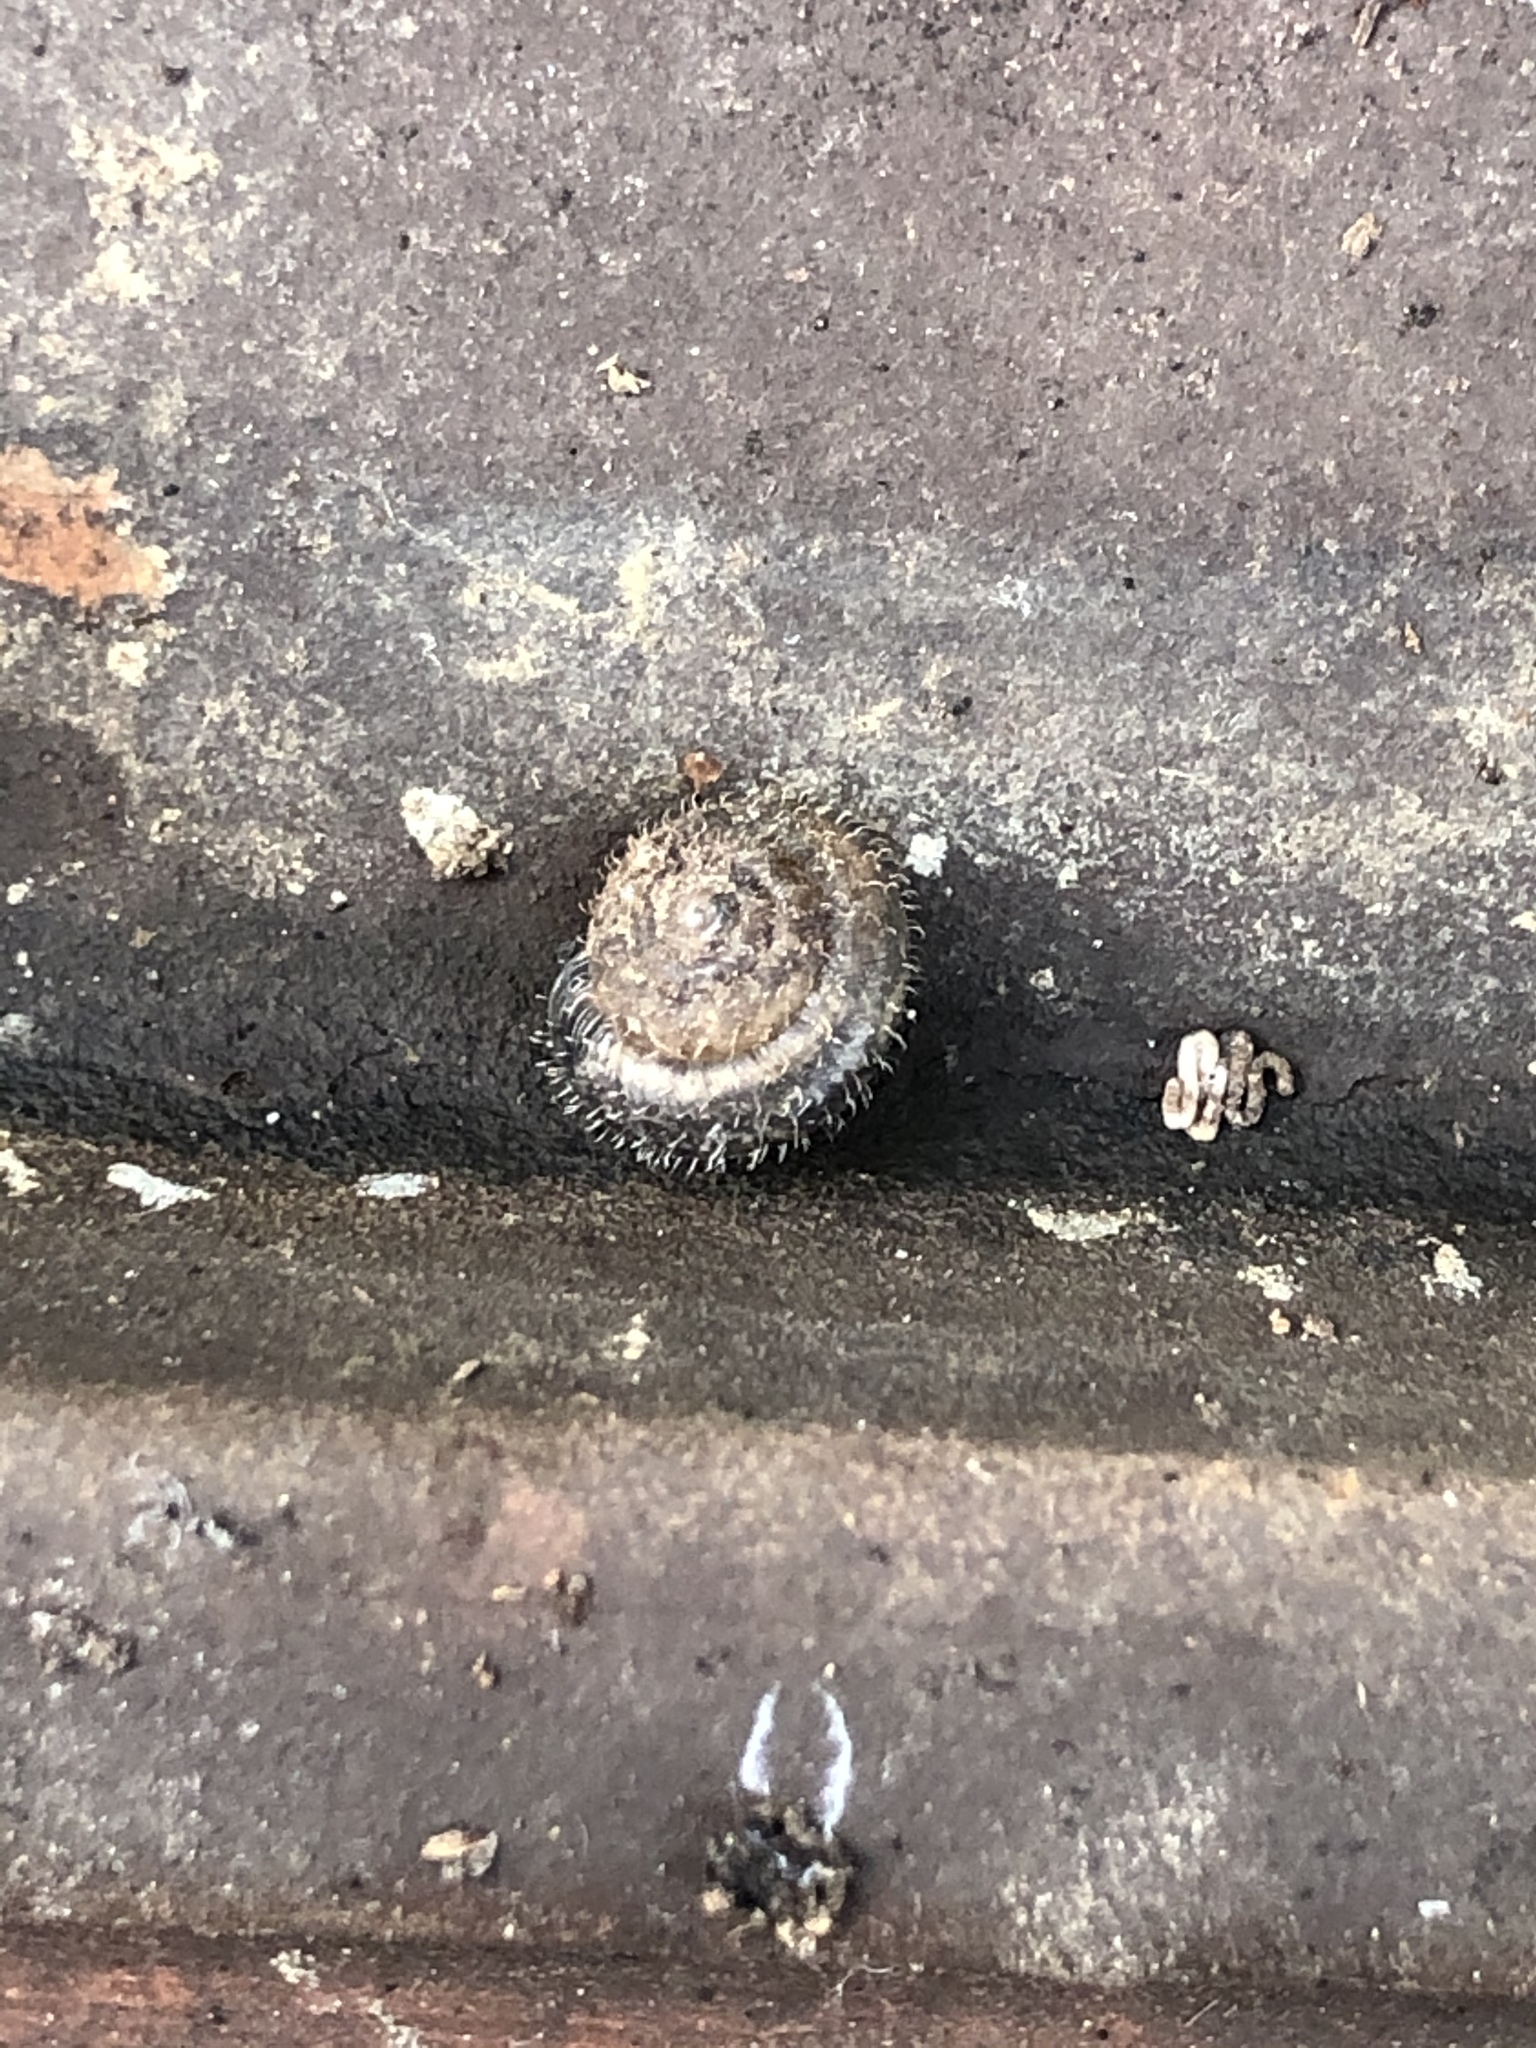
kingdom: Animalia
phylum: Mollusca
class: Gastropoda
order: Stylommatophora
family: Hygromiidae
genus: Trochulus
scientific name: Trochulus hispidus
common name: Hairy snail
